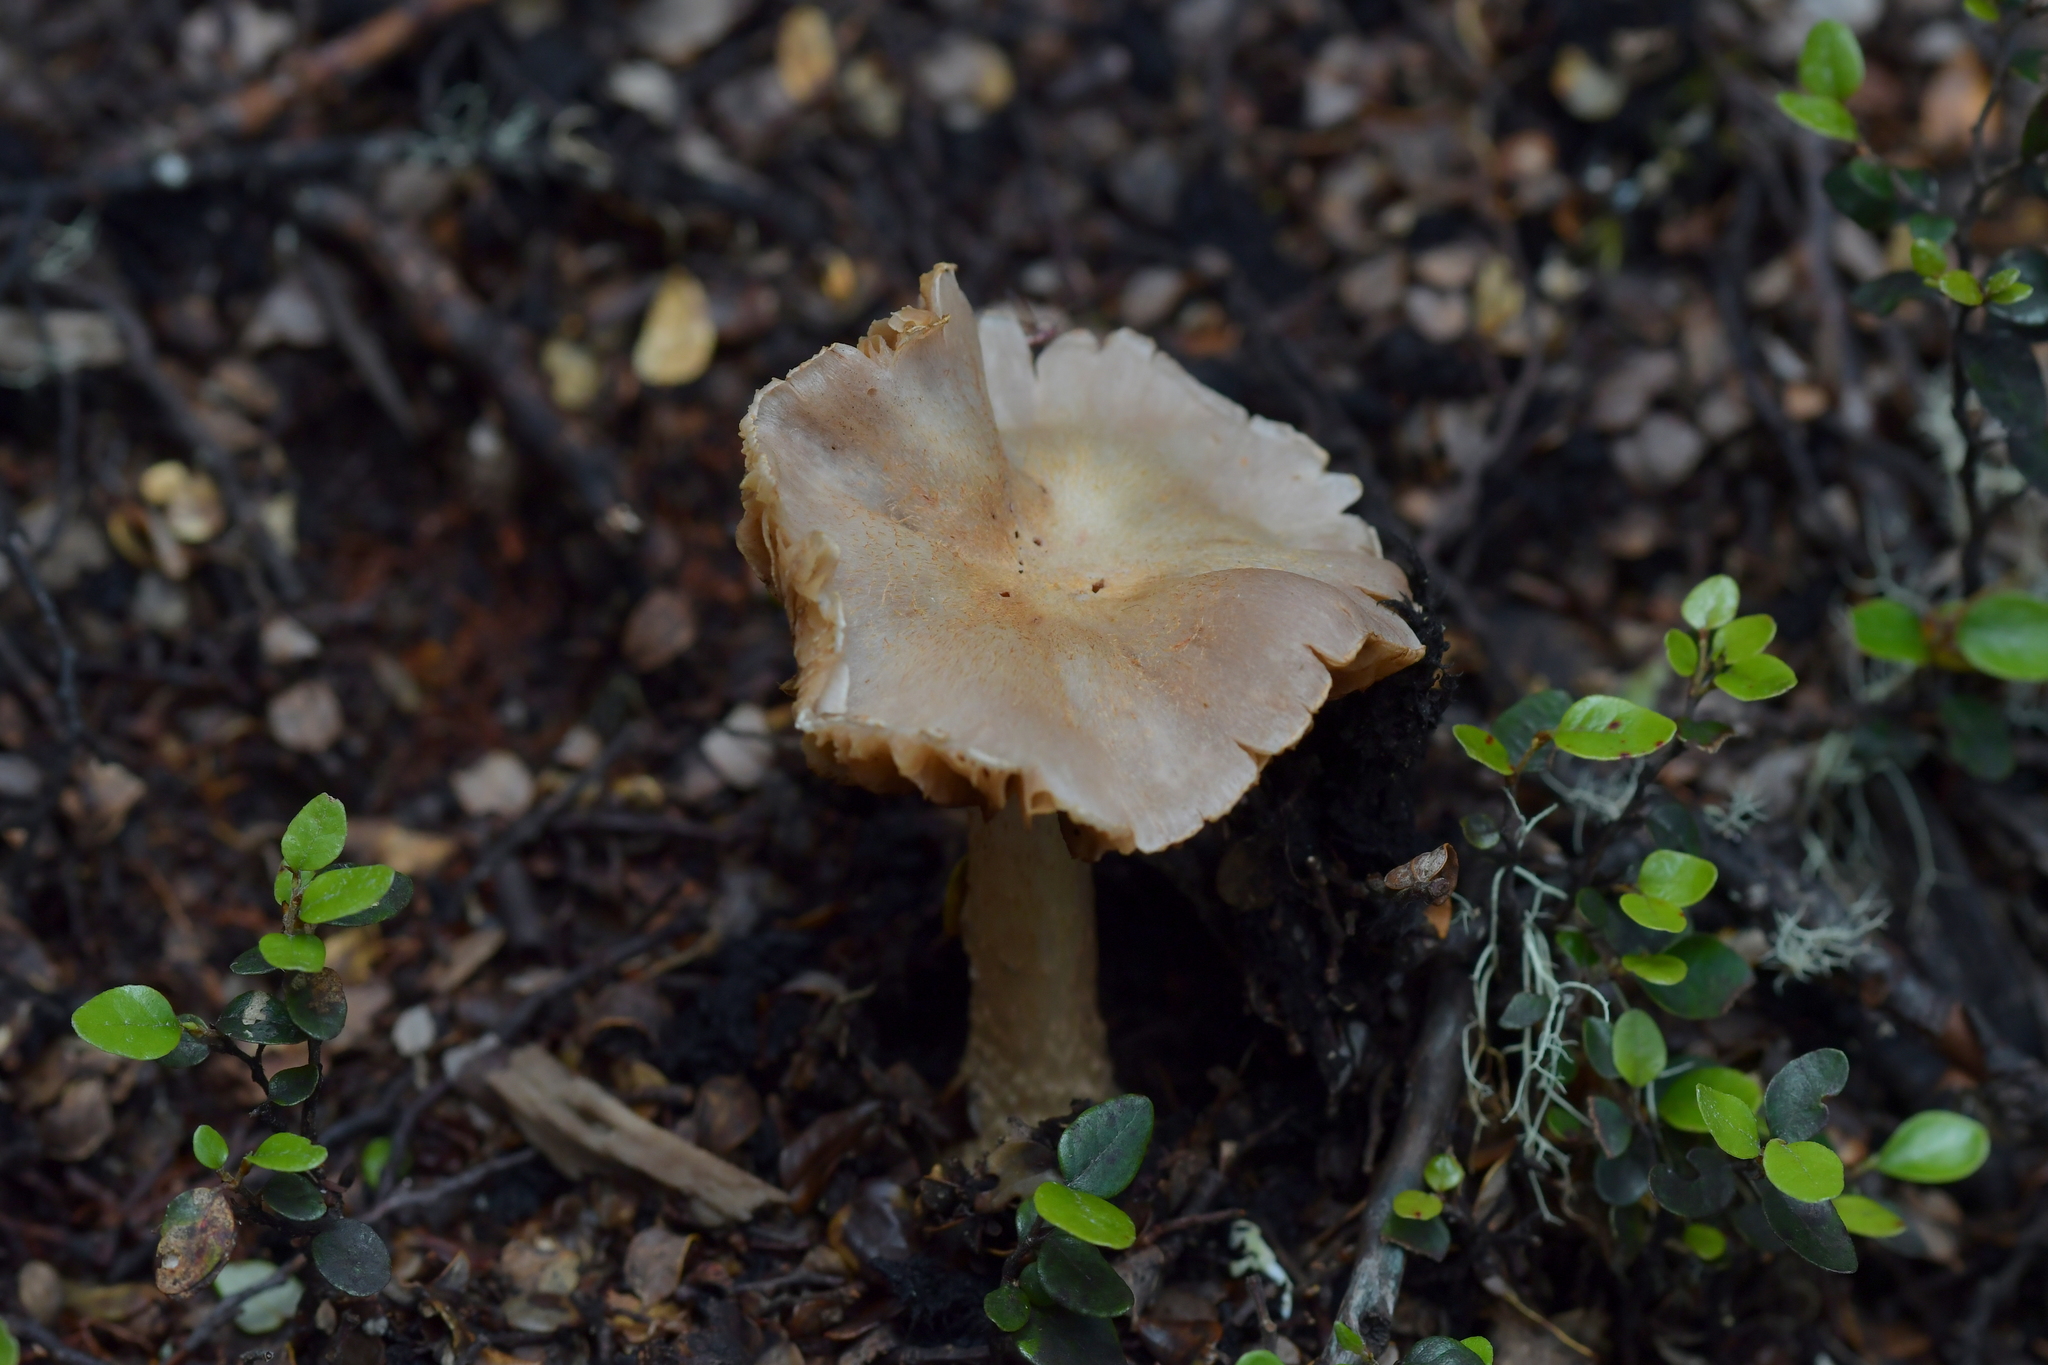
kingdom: Fungi
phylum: Basidiomycota
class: Agaricomycetes
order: Agaricales
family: Cortinariaceae
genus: Cortinarius
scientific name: Cortinarius alboroseus
